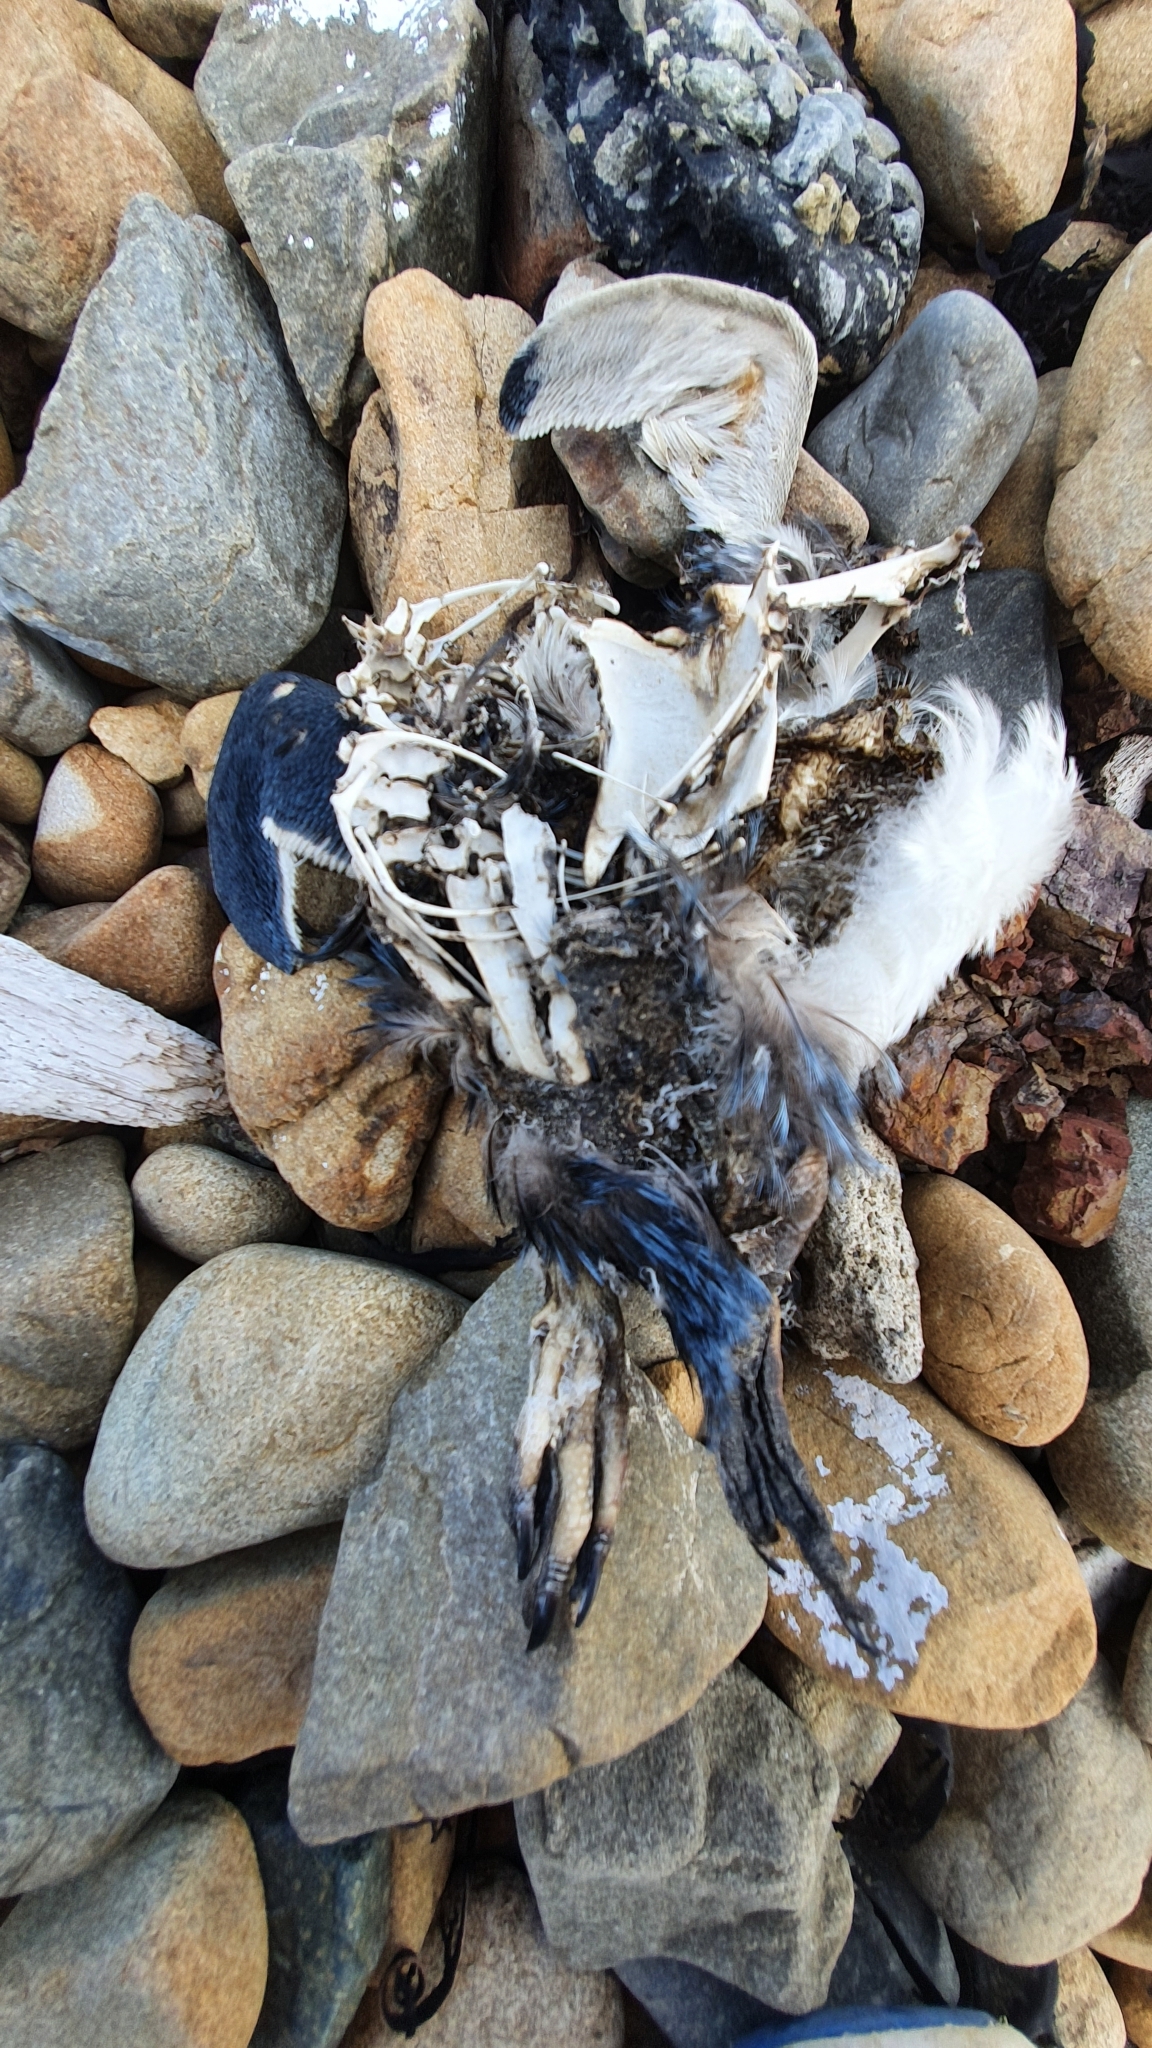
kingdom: Animalia
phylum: Chordata
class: Aves
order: Sphenisciformes
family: Spheniscidae
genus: Eudyptula
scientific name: Eudyptula minor
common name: Little penguin
